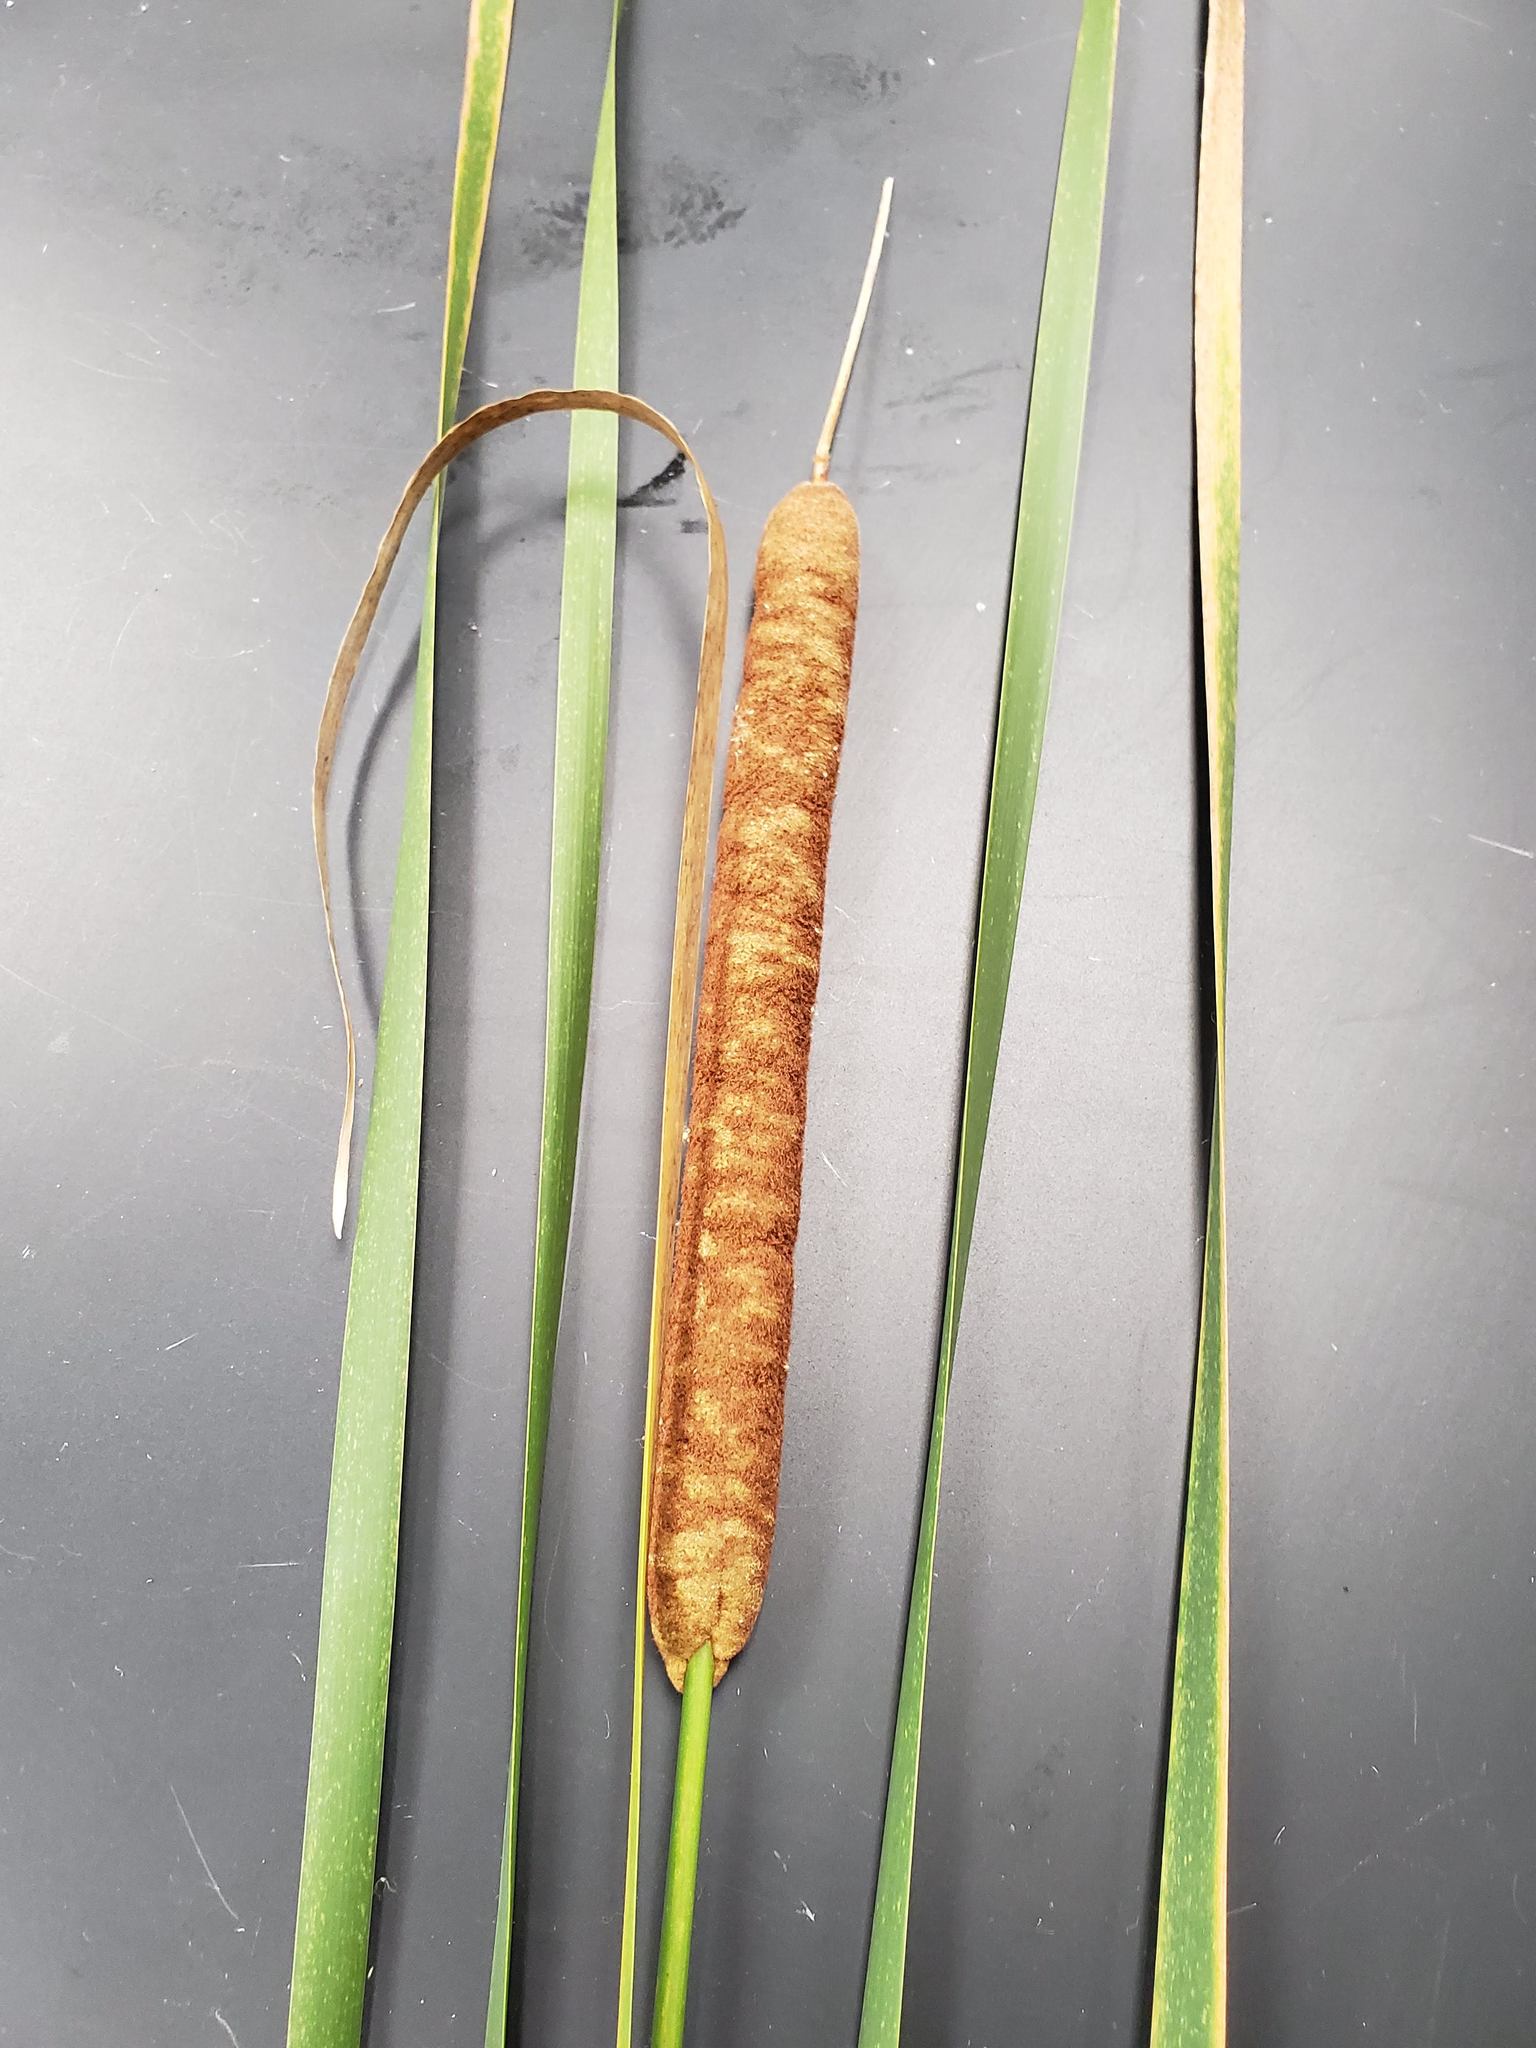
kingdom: Plantae
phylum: Tracheophyta
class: Liliopsida
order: Poales
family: Typhaceae
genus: Typha
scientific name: Typha angustifolia
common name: Lesser bulrush
